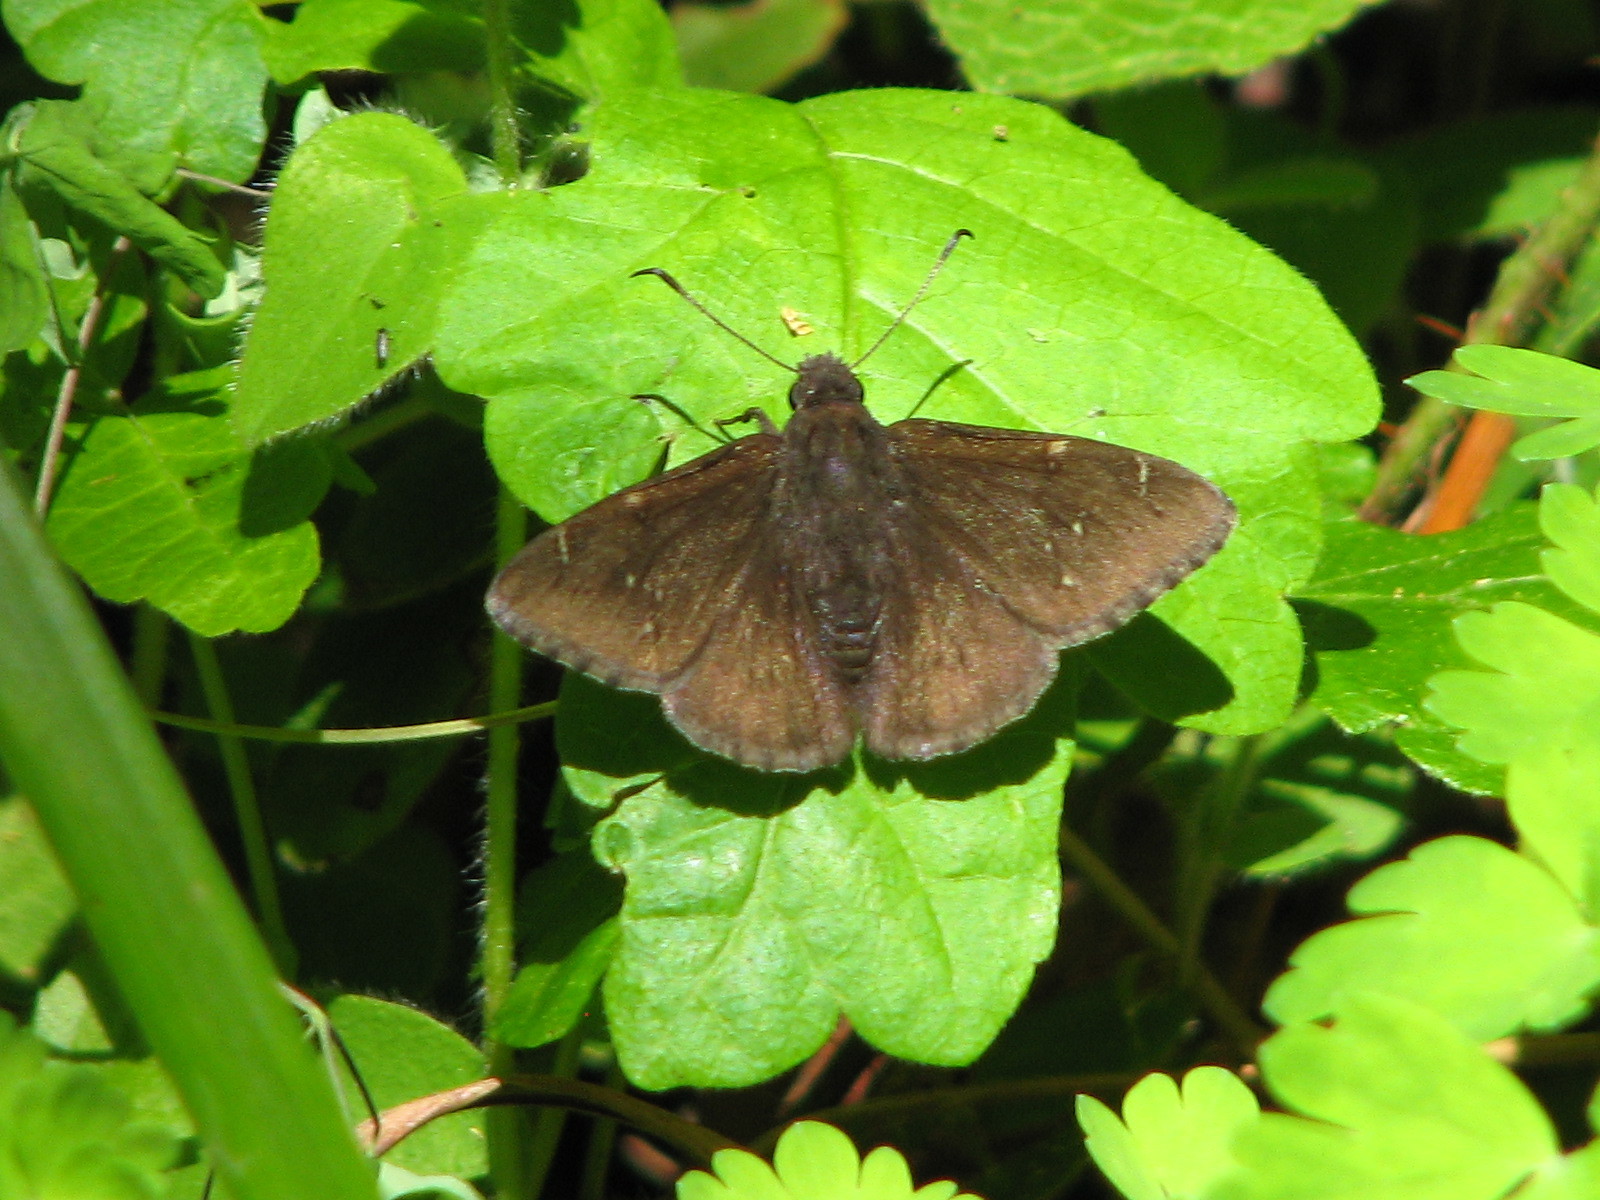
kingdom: Animalia
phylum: Arthropoda
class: Insecta
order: Lepidoptera
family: Hesperiidae
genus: Thorybes
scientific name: Thorybes pylades
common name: Northern cloudywing
